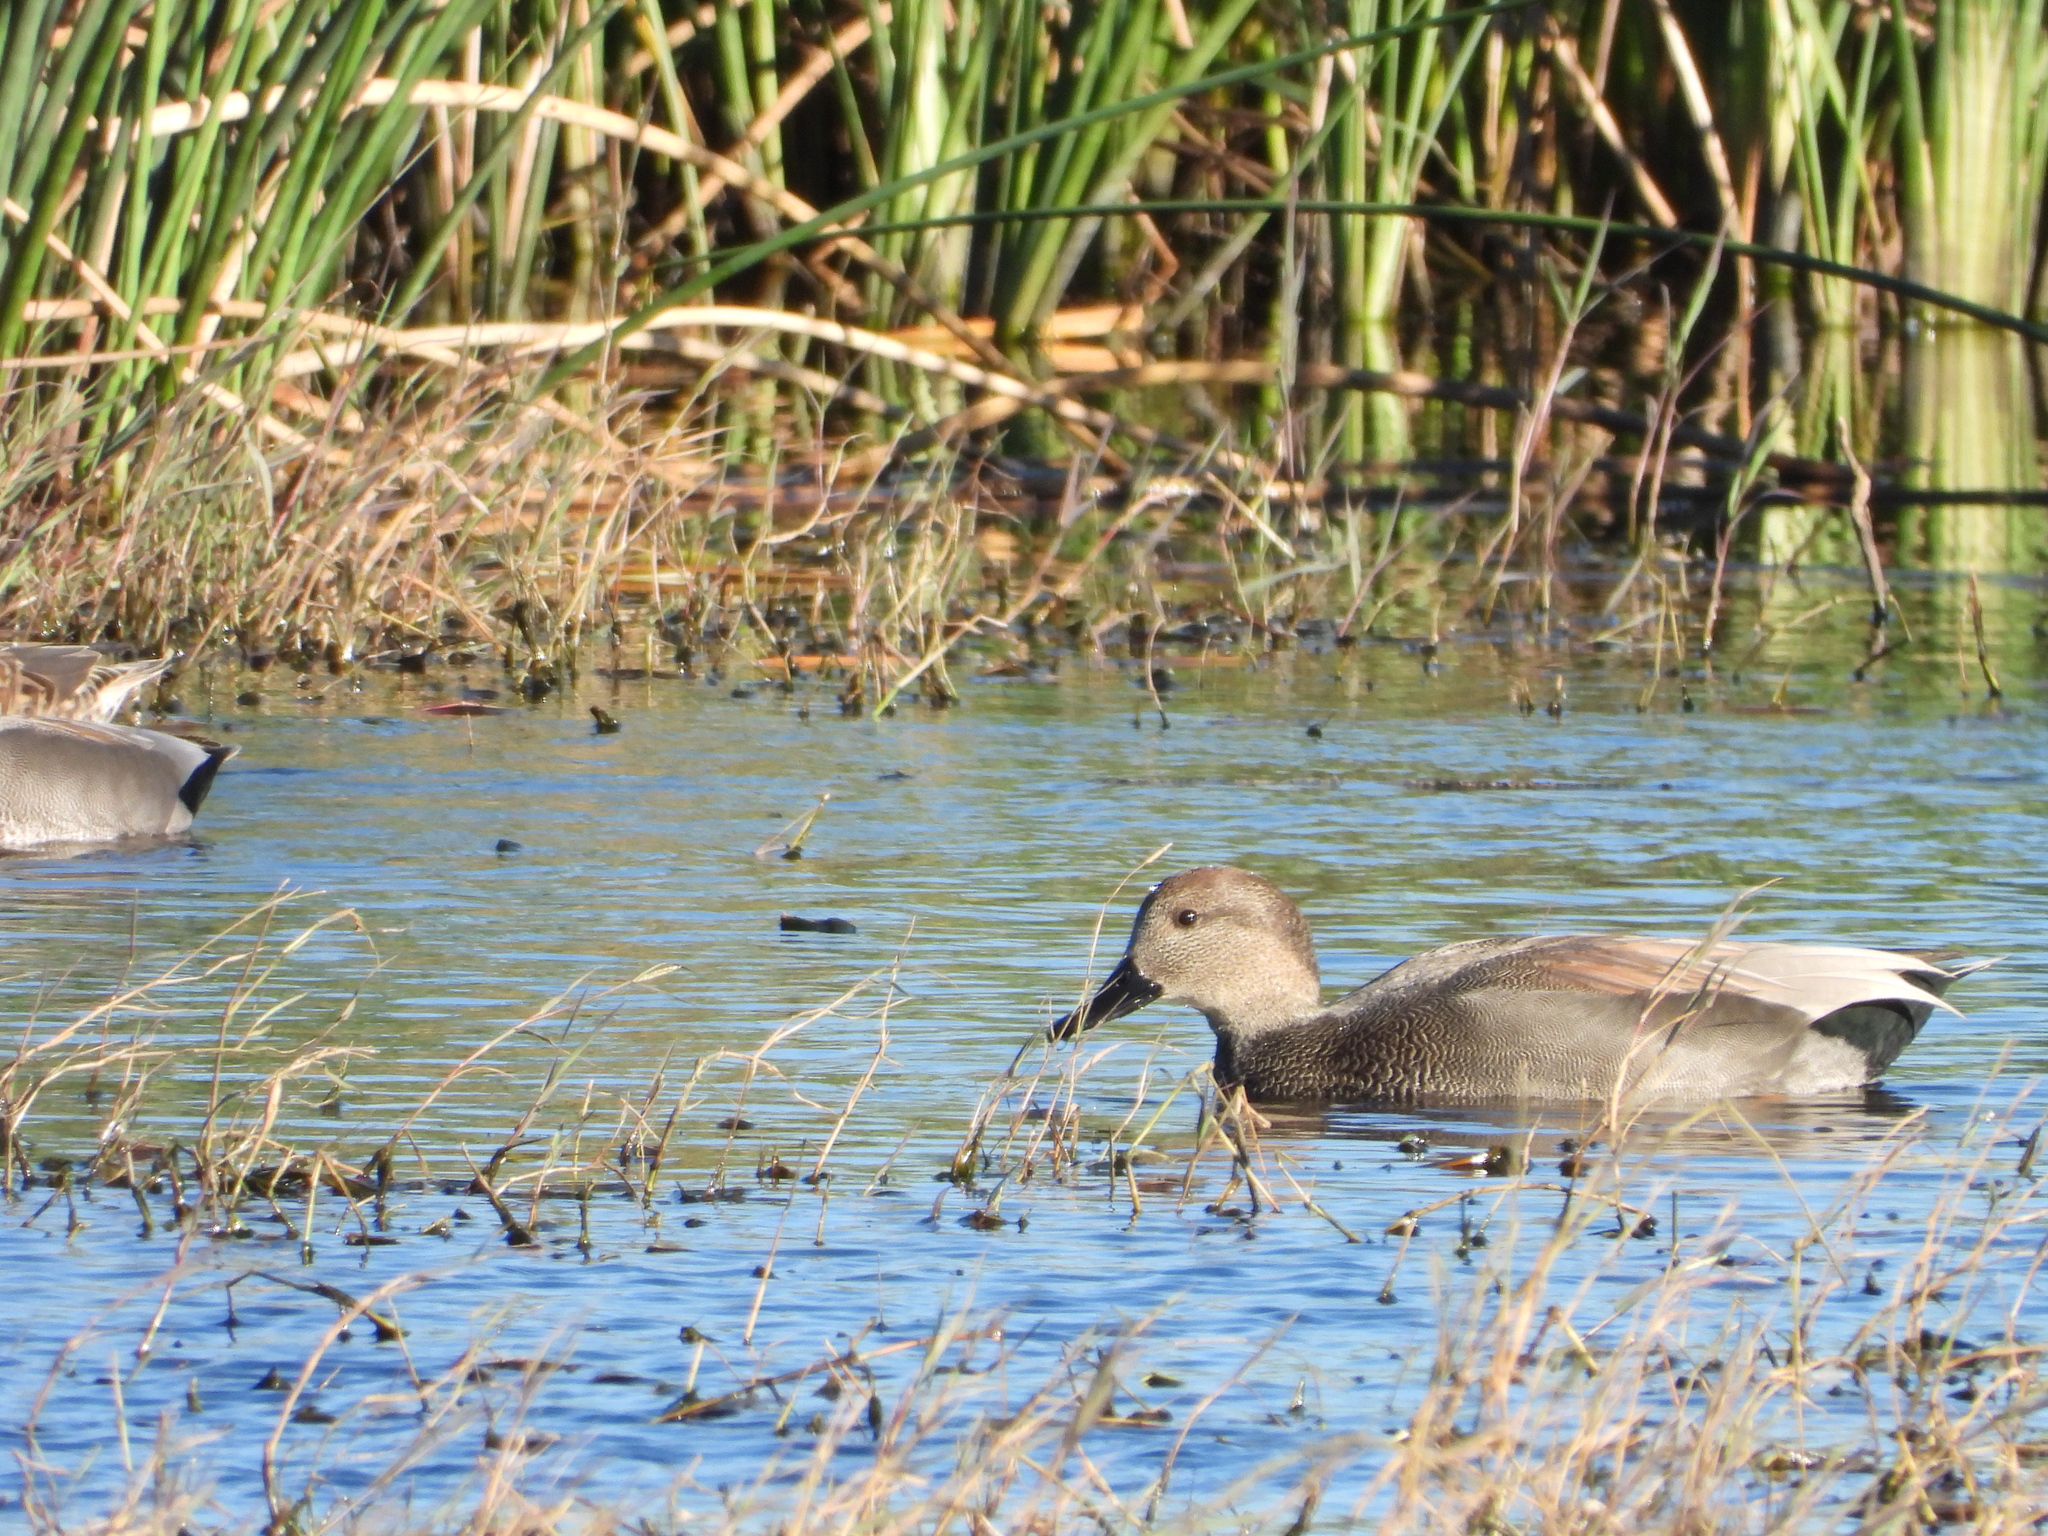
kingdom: Animalia
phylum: Chordata
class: Aves
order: Anseriformes
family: Anatidae
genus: Mareca
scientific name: Mareca strepera
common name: Gadwall
